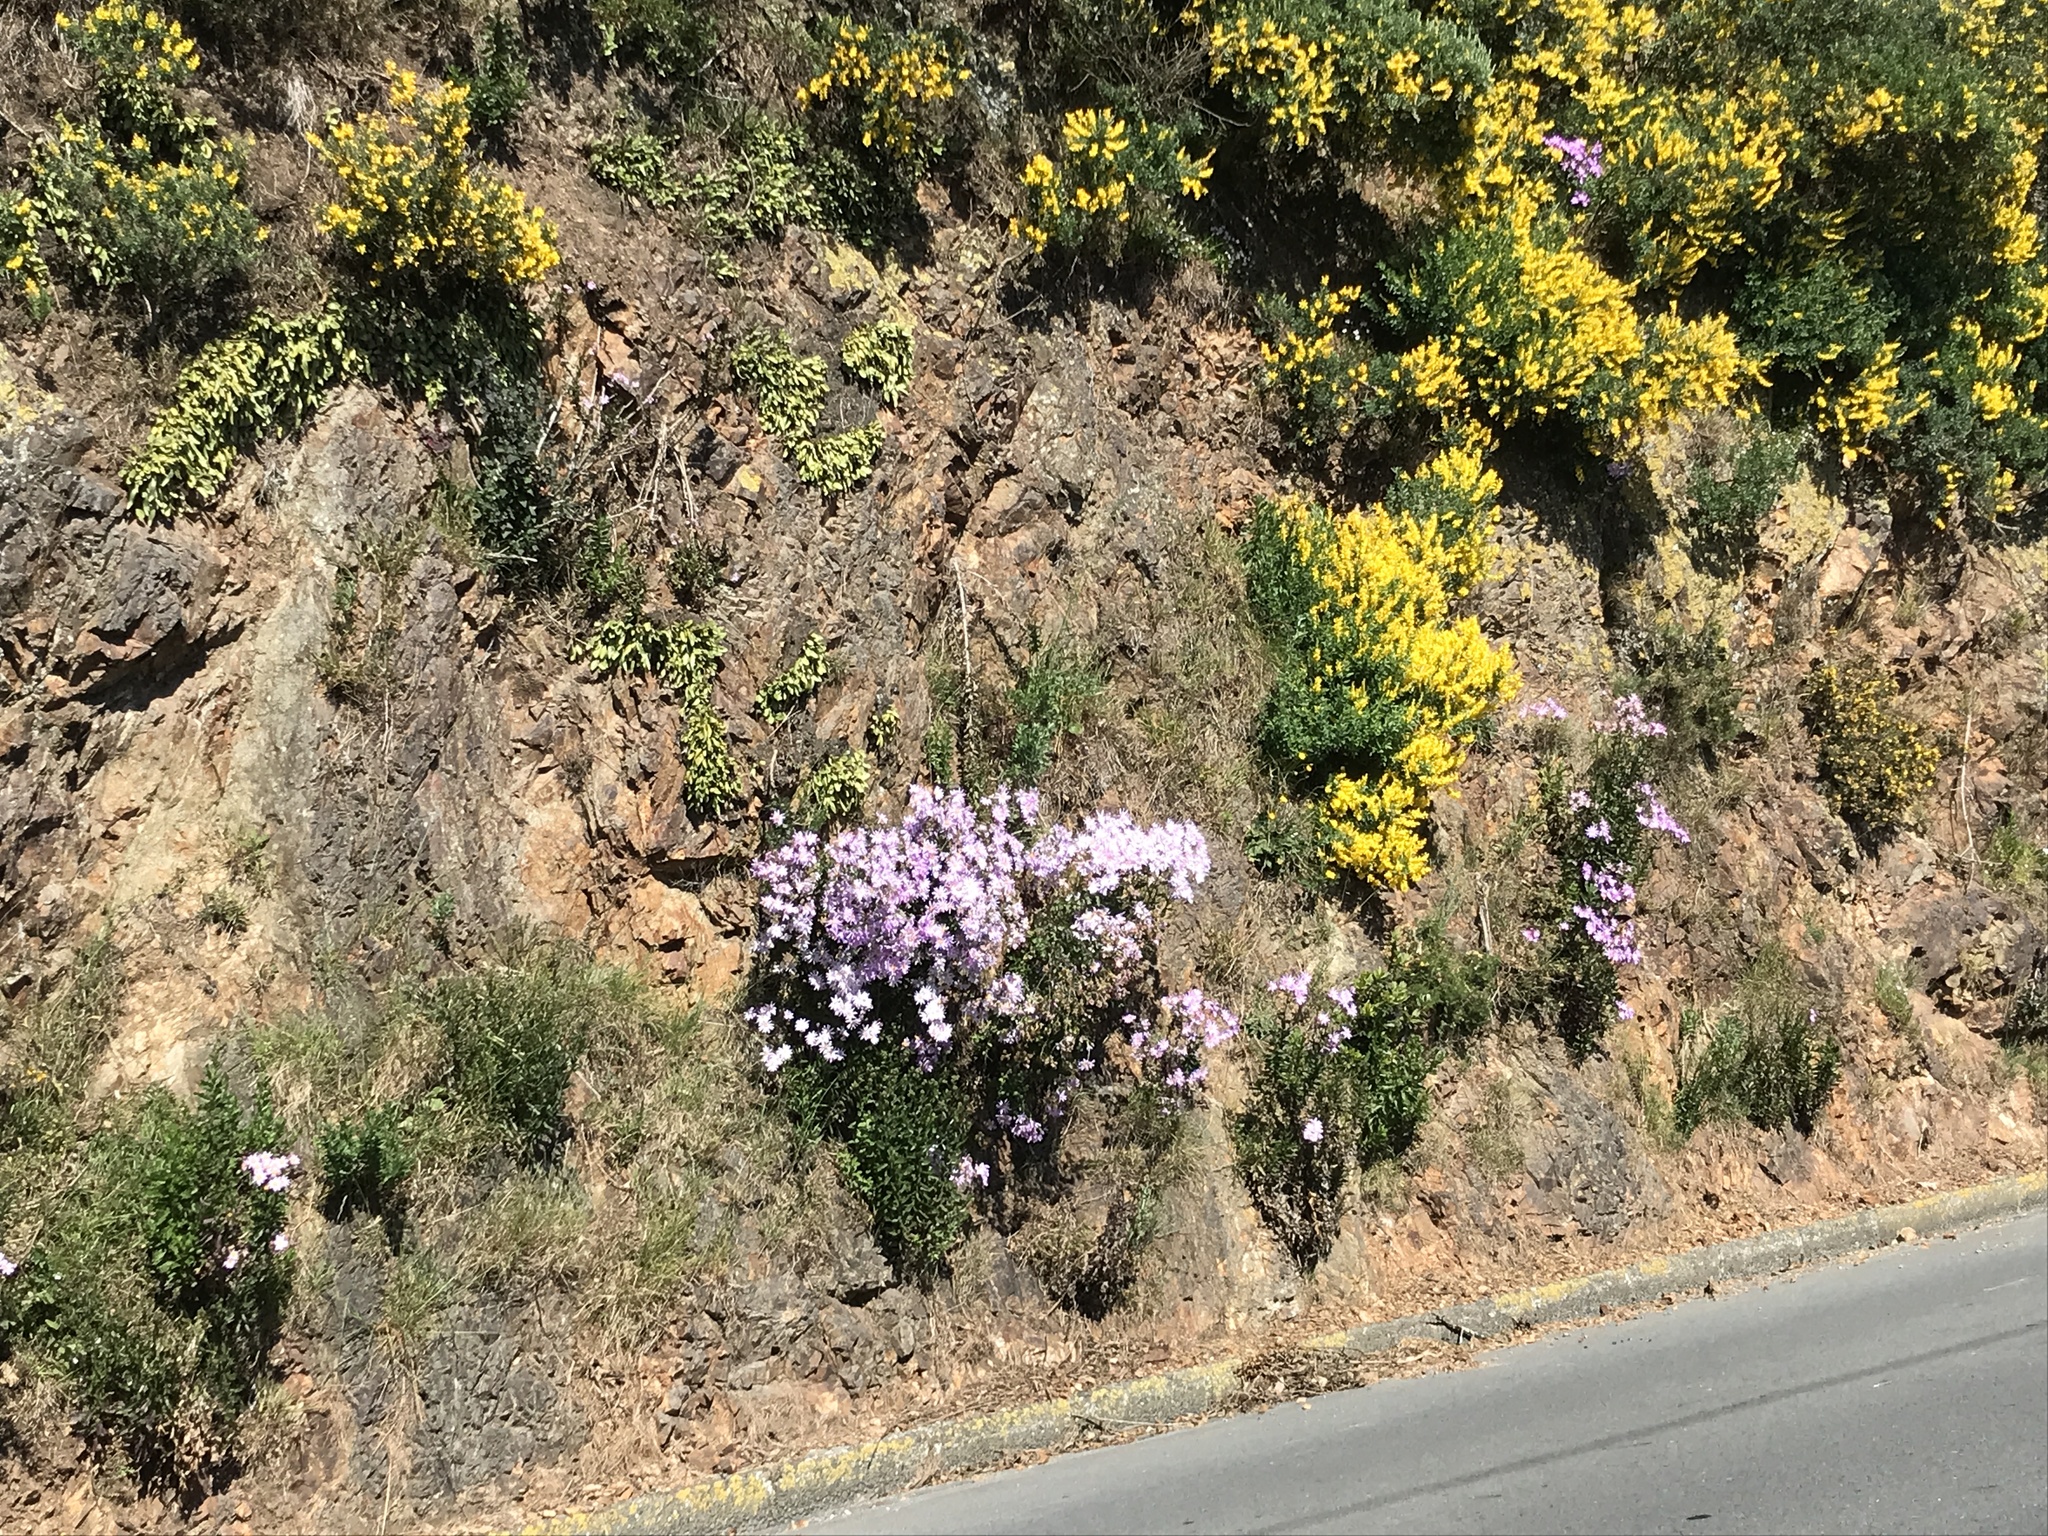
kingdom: Plantae
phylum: Tracheophyta
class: Magnoliopsida
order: Asterales
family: Asteraceae
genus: Senecio
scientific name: Senecio glastifolius
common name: Woad-leaved ragwort
